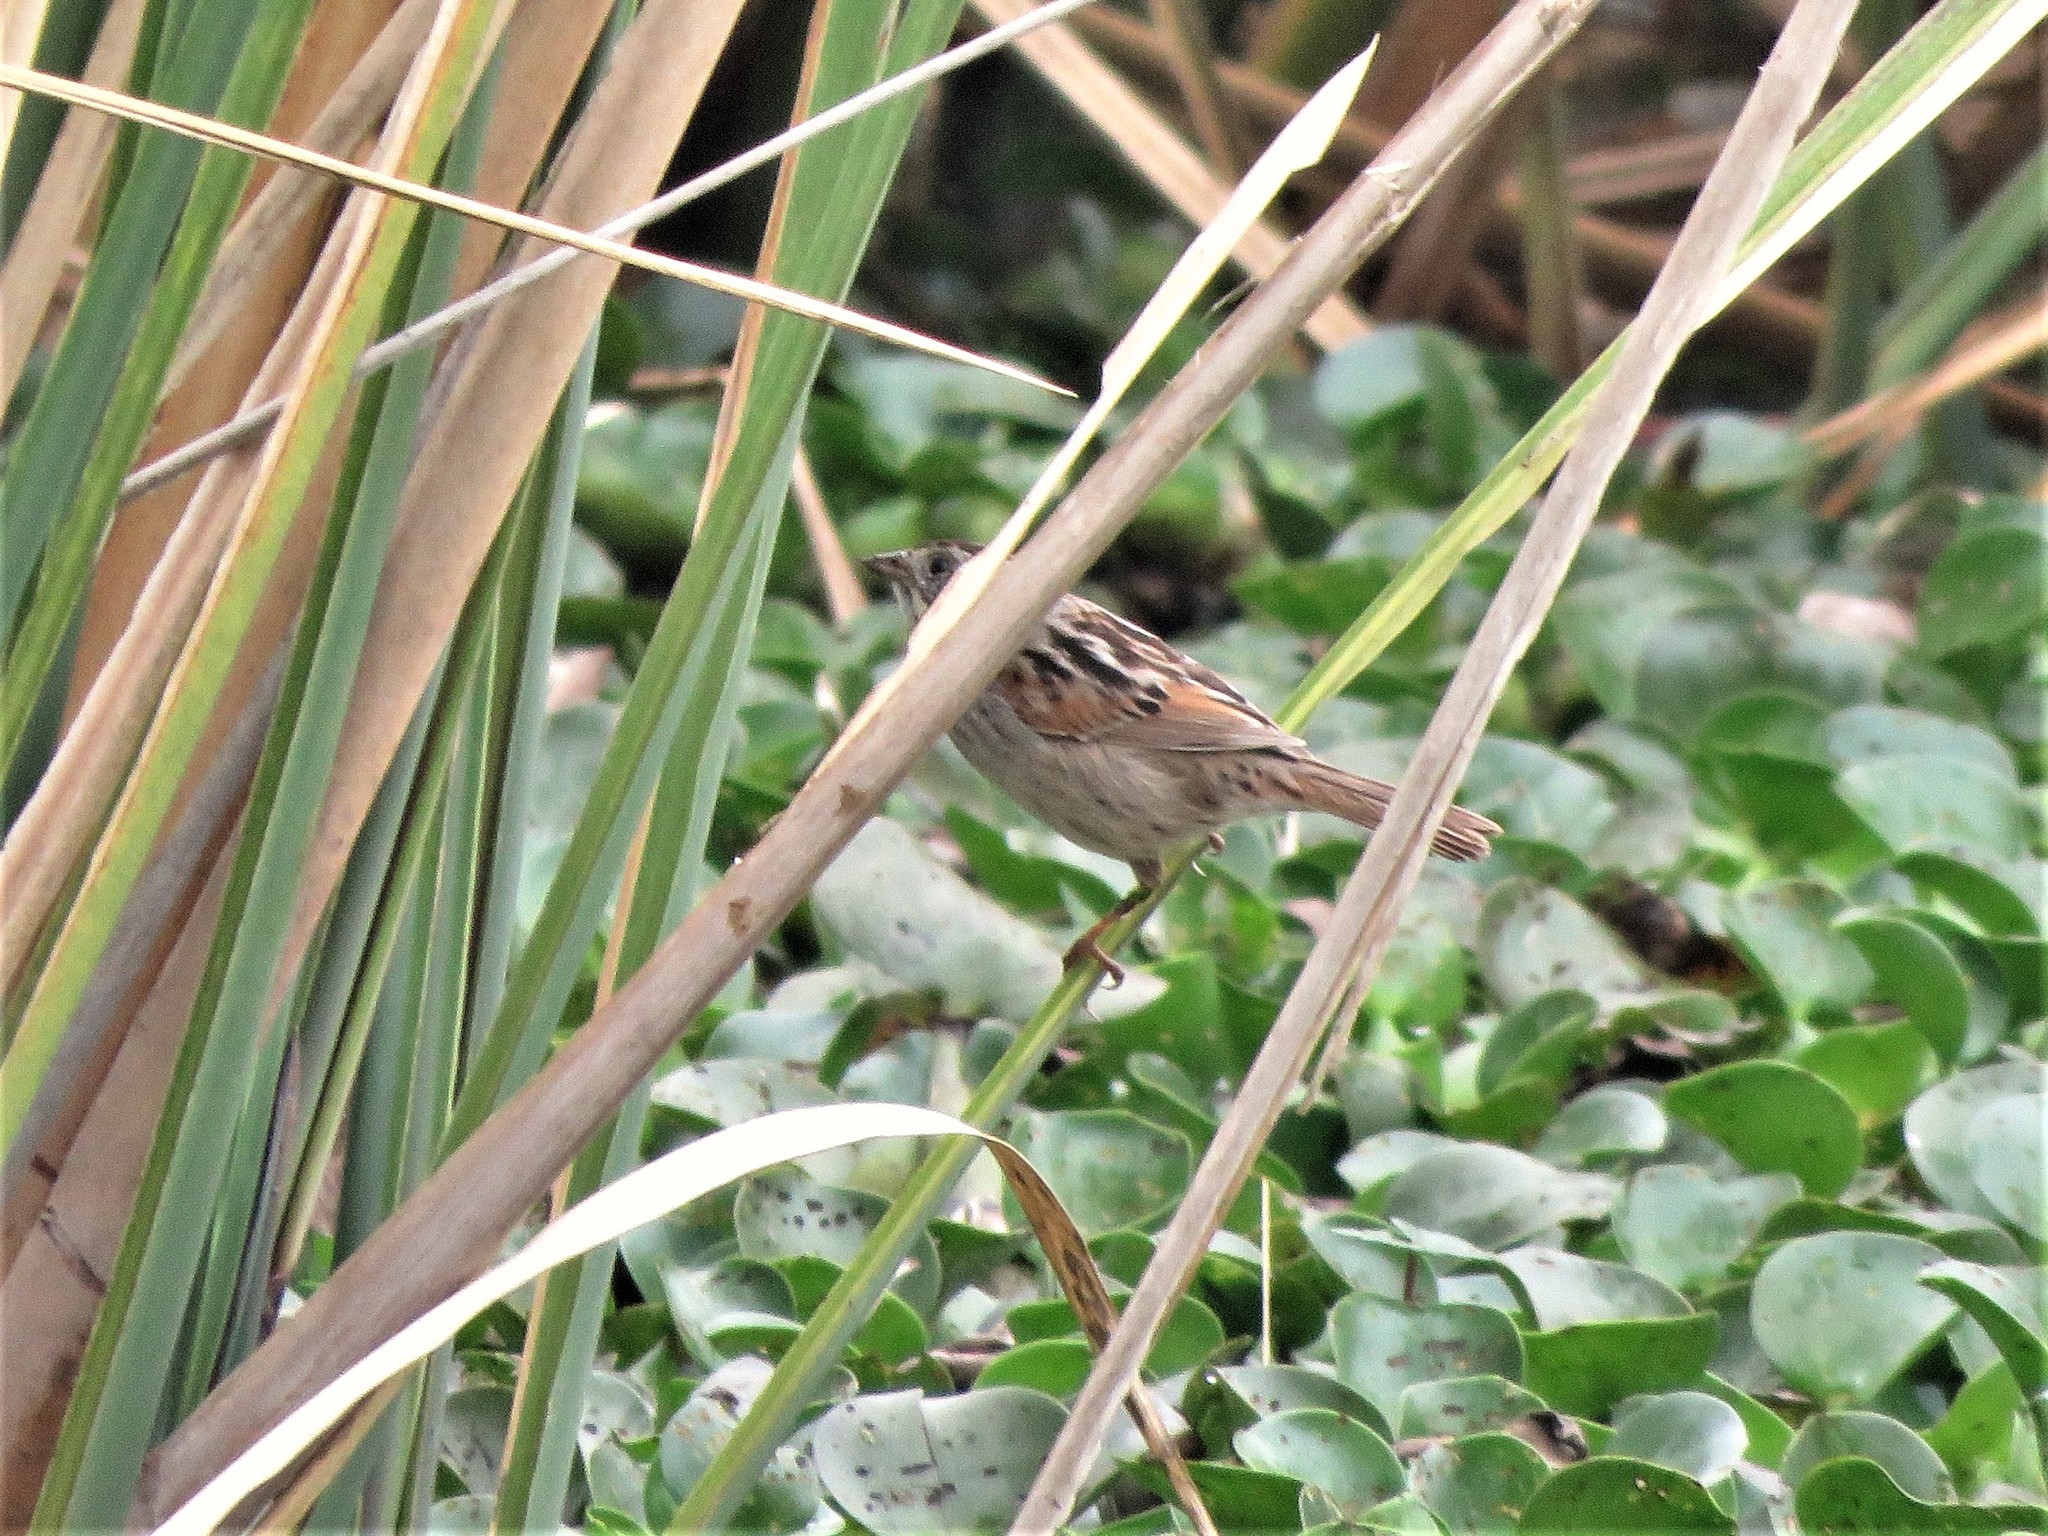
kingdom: Animalia
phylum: Chordata
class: Aves
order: Passeriformes
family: Passerellidae
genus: Melospiza
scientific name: Melospiza georgiana
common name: Swamp sparrow
